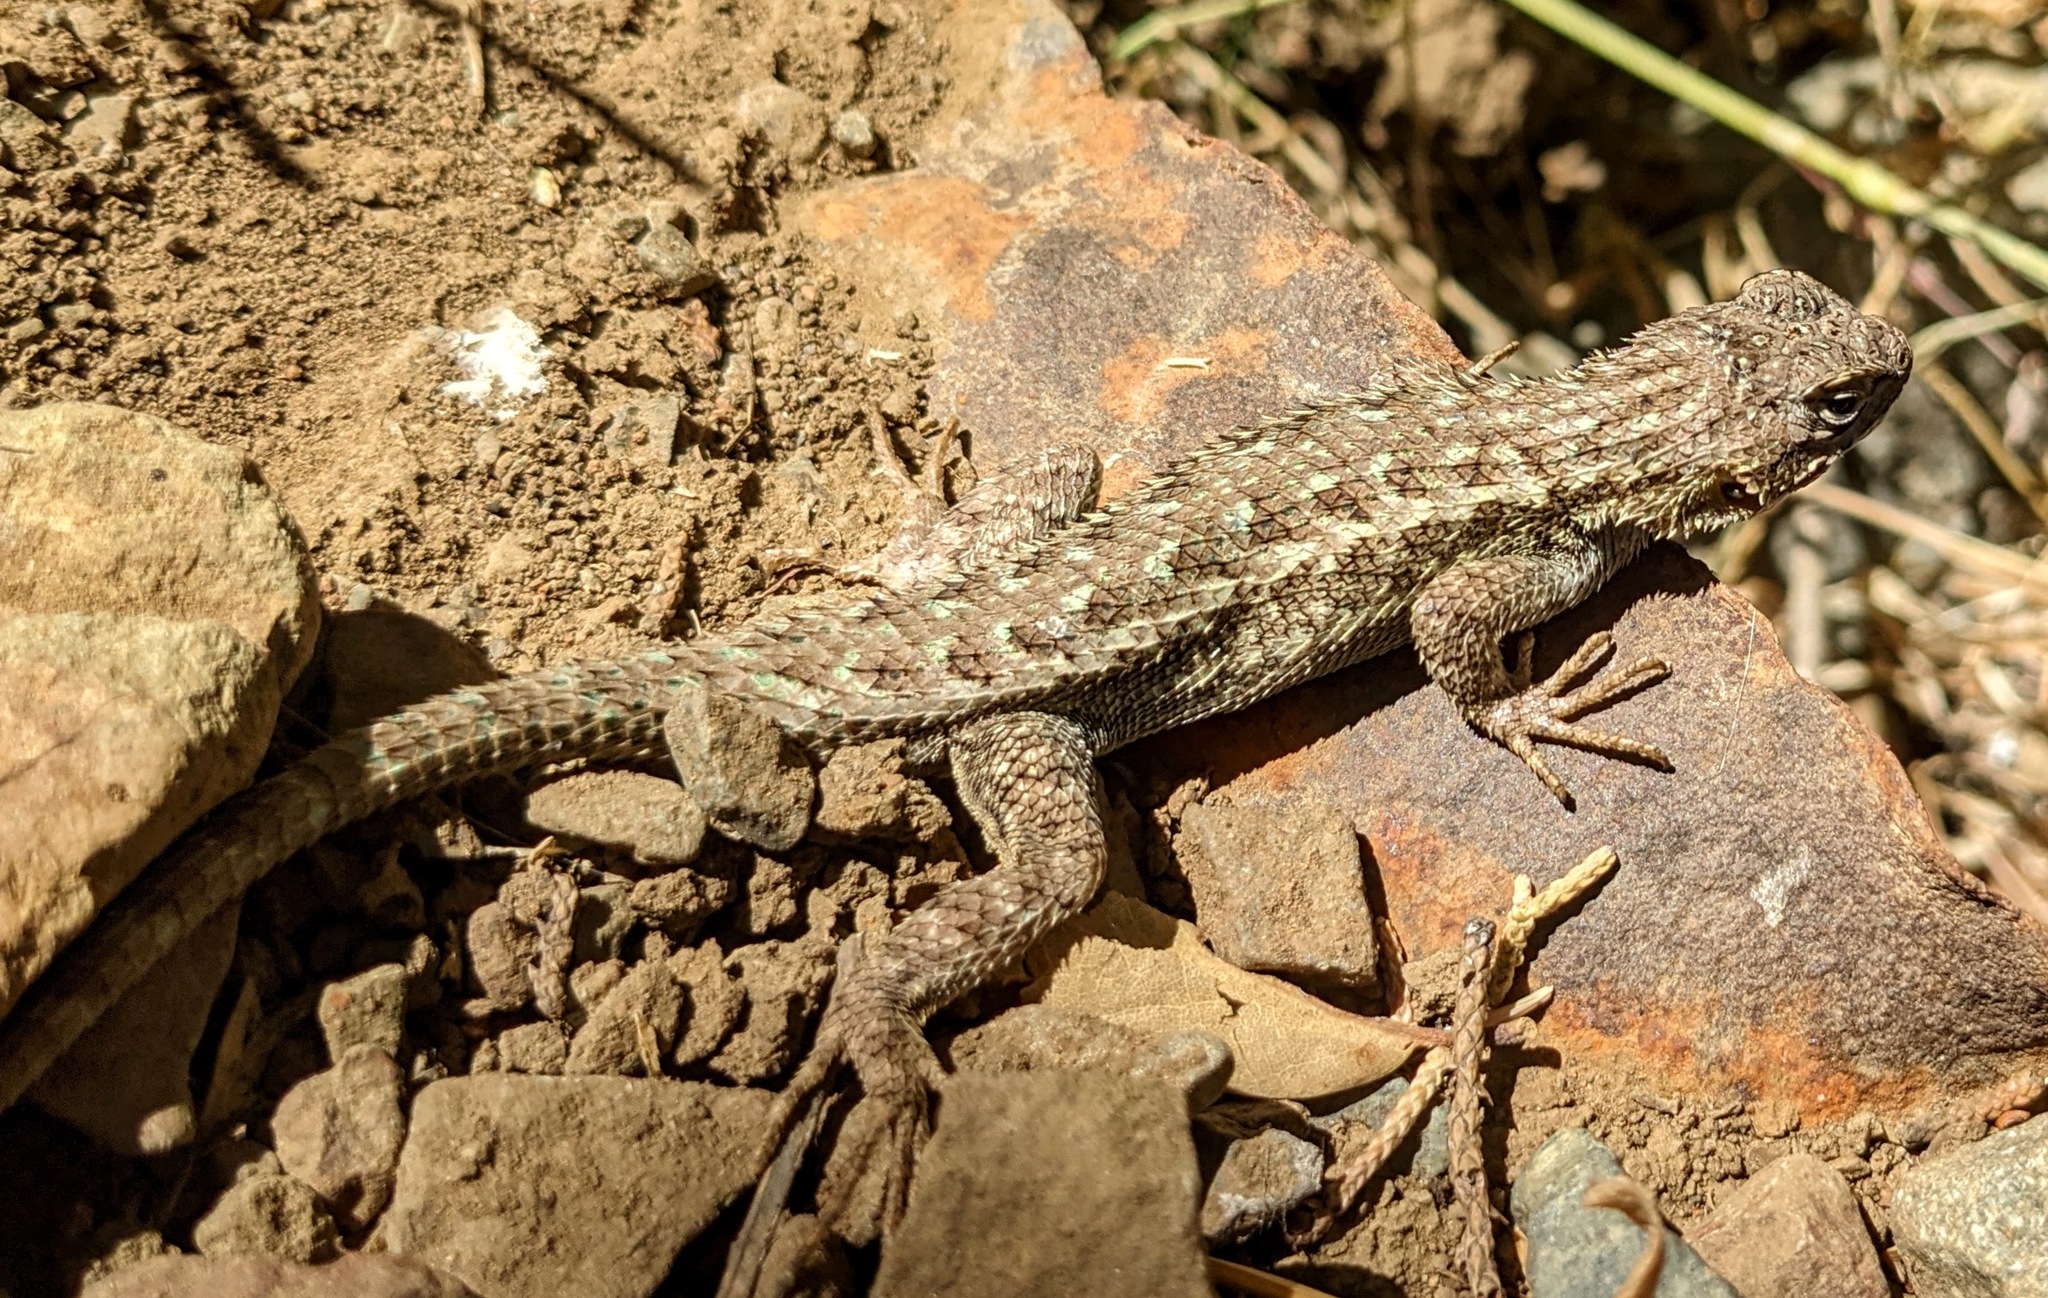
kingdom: Animalia
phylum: Chordata
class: Squamata
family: Phrynosomatidae
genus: Sceloporus
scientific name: Sceloporus occidentalis
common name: Western fence lizard
